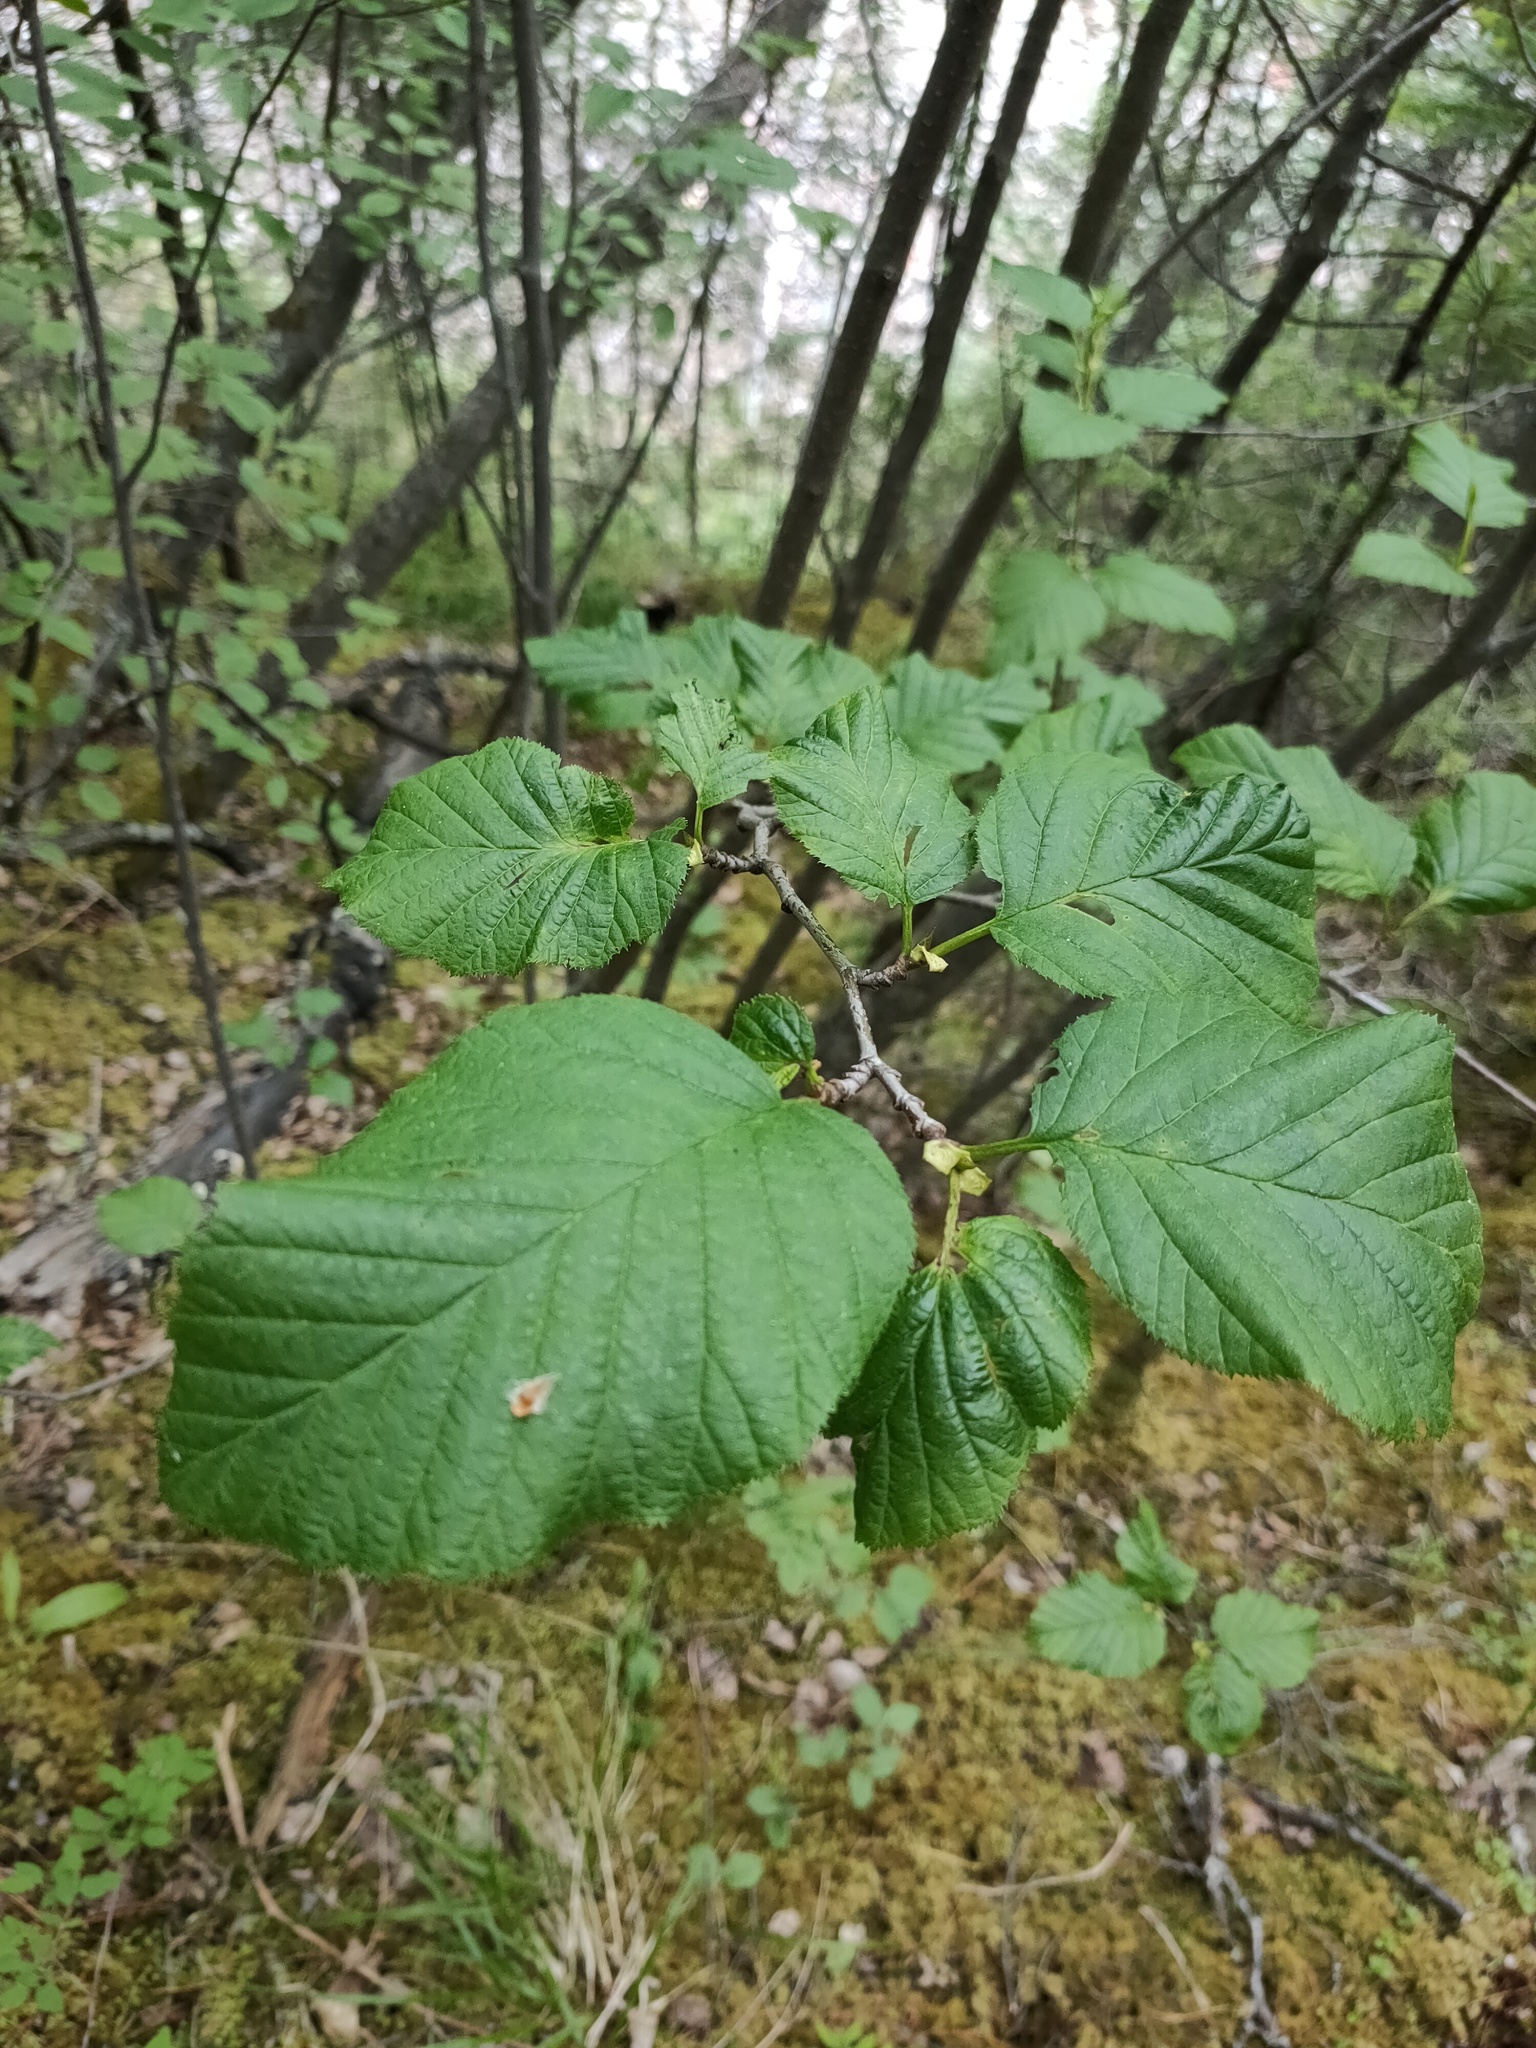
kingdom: Plantae
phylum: Tracheophyta
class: Magnoliopsida
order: Fagales
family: Betulaceae
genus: Alnus
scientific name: Alnus alnobetula
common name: Green alder
